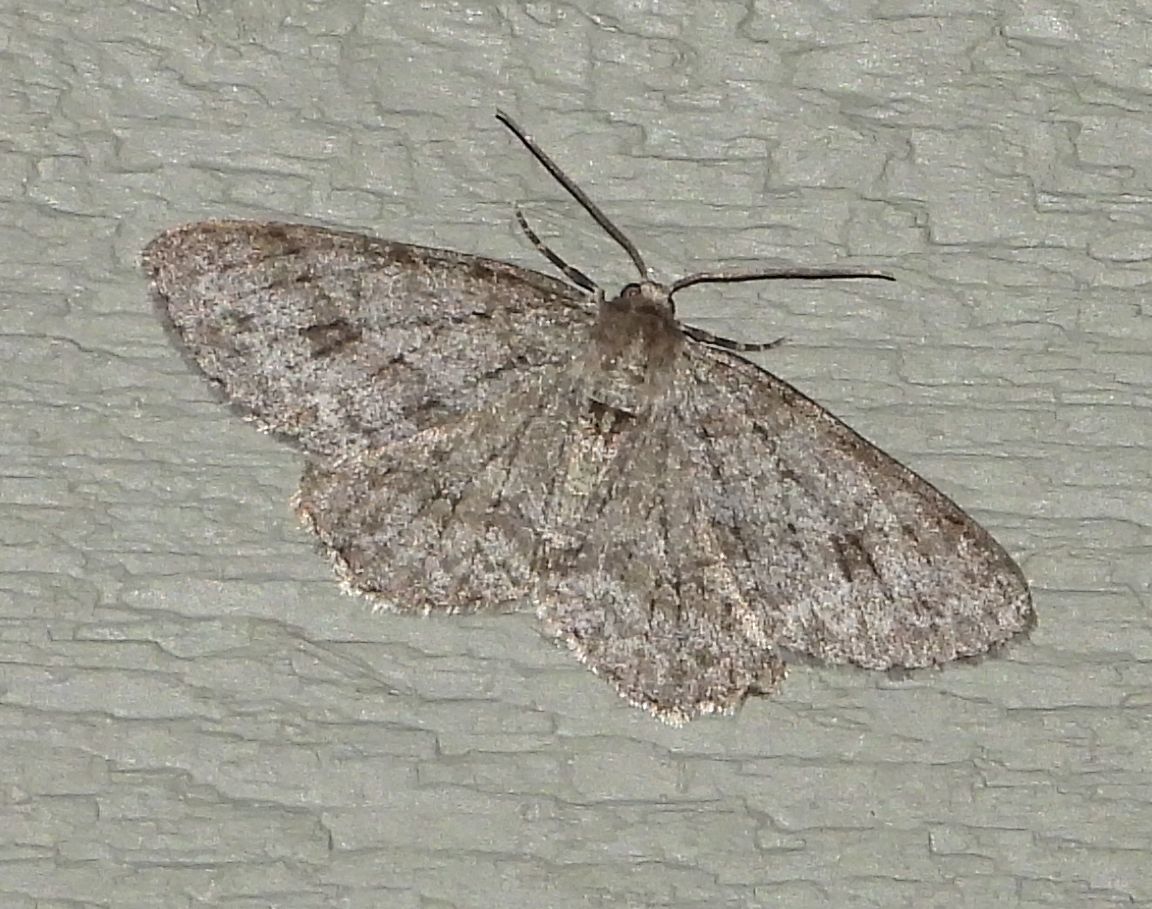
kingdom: Animalia
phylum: Arthropoda
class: Insecta
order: Lepidoptera
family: Geometridae
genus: Ectropis
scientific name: Ectropis crepuscularia
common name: Engrailed
